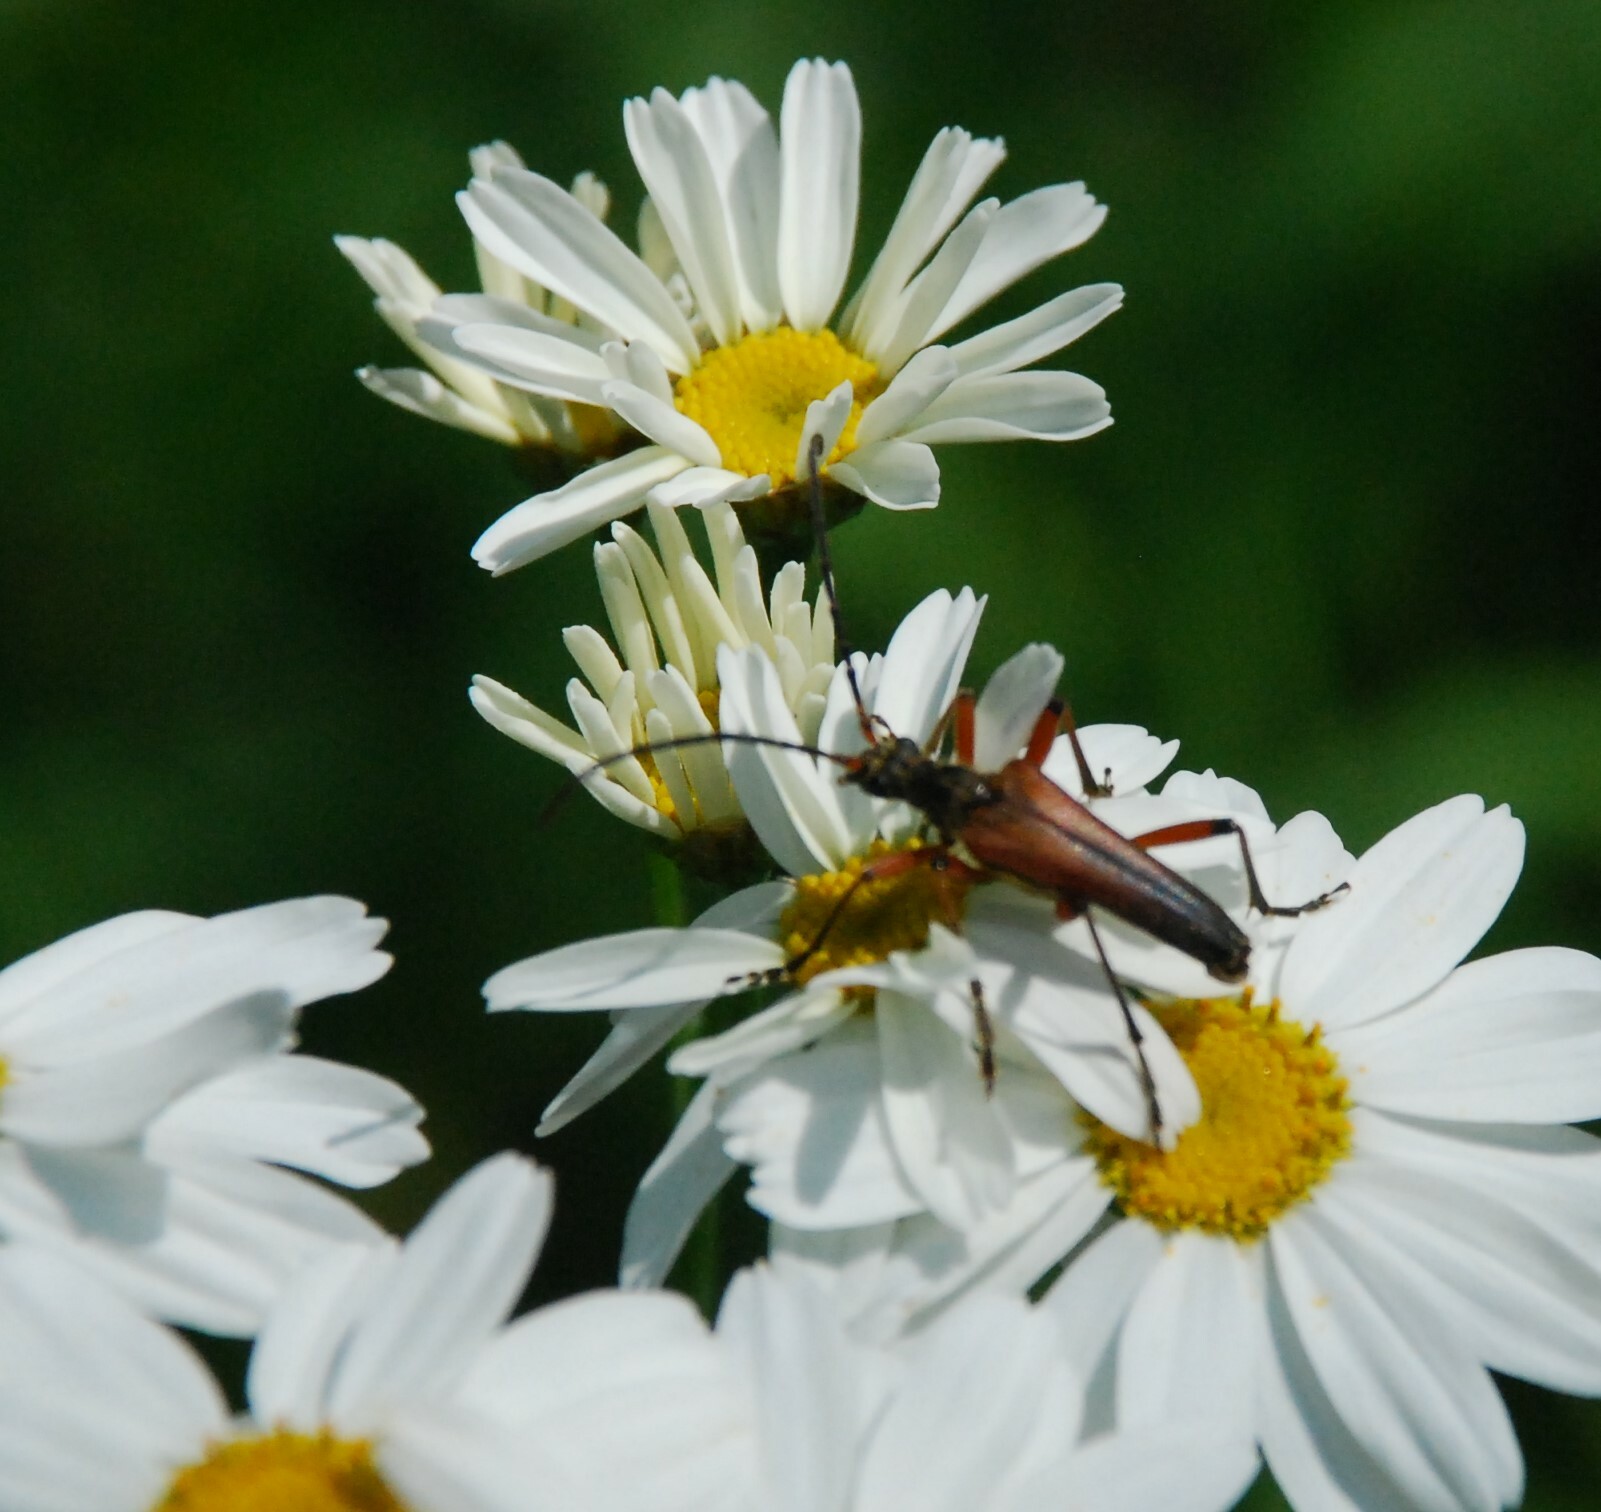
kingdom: Animalia
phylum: Arthropoda
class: Insecta
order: Coleoptera
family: Cerambycidae
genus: Stenocorus
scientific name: Stenocorus meridianus
